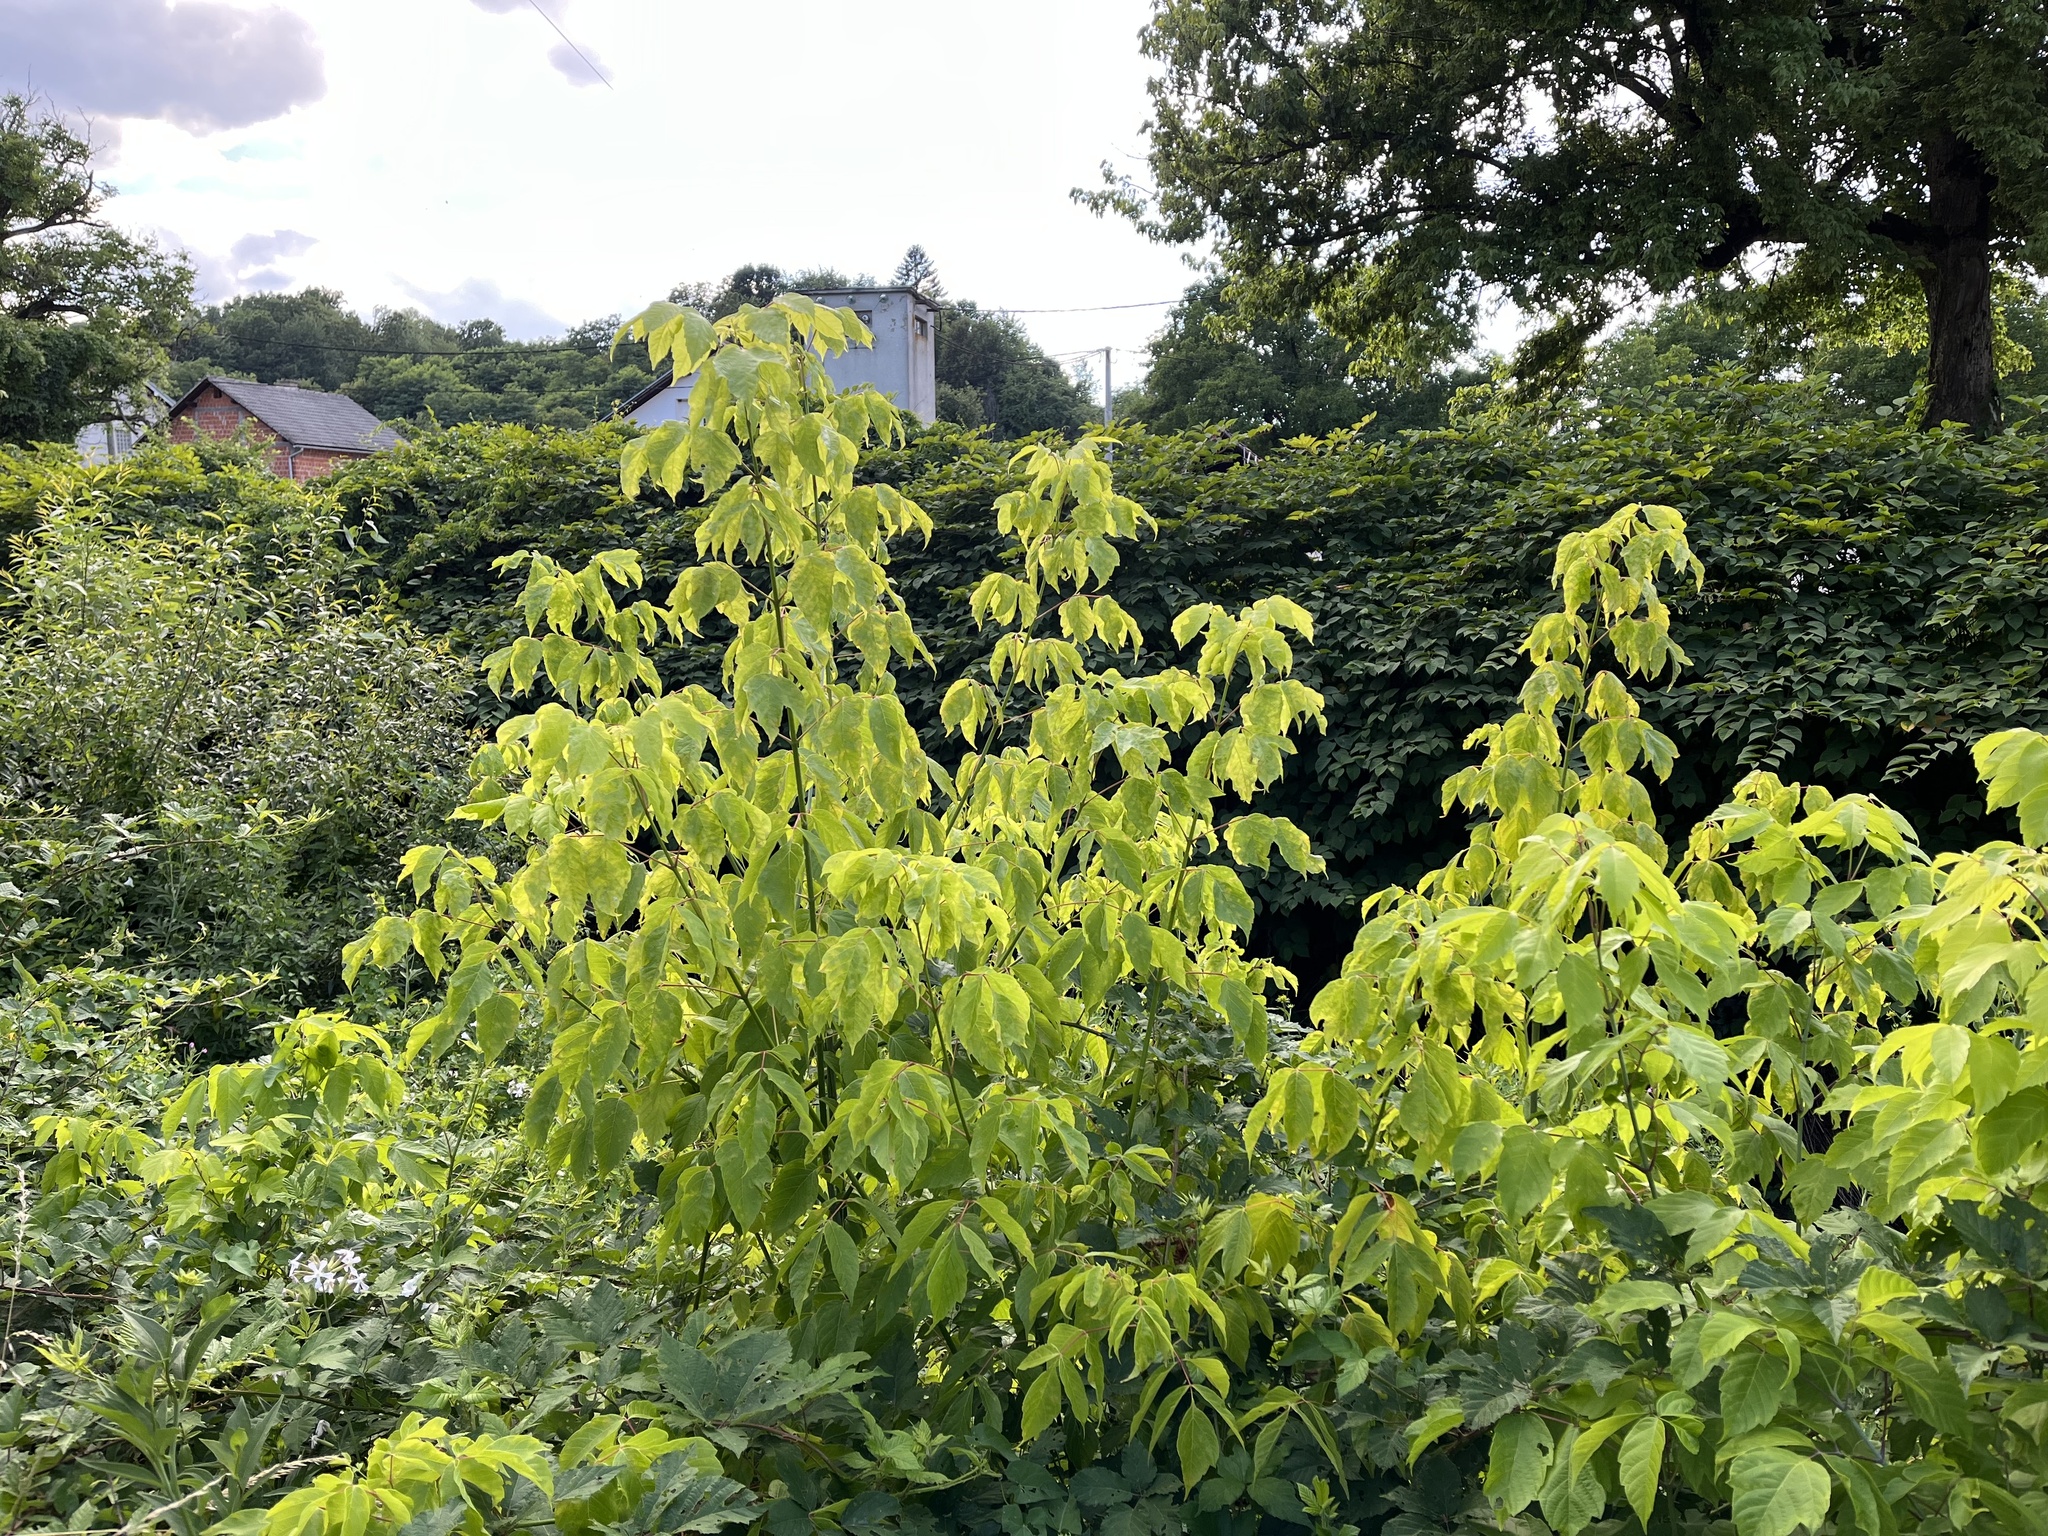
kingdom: Plantae
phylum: Tracheophyta
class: Magnoliopsida
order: Sapindales
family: Sapindaceae
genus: Acer
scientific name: Acer negundo
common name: Ashleaf maple
